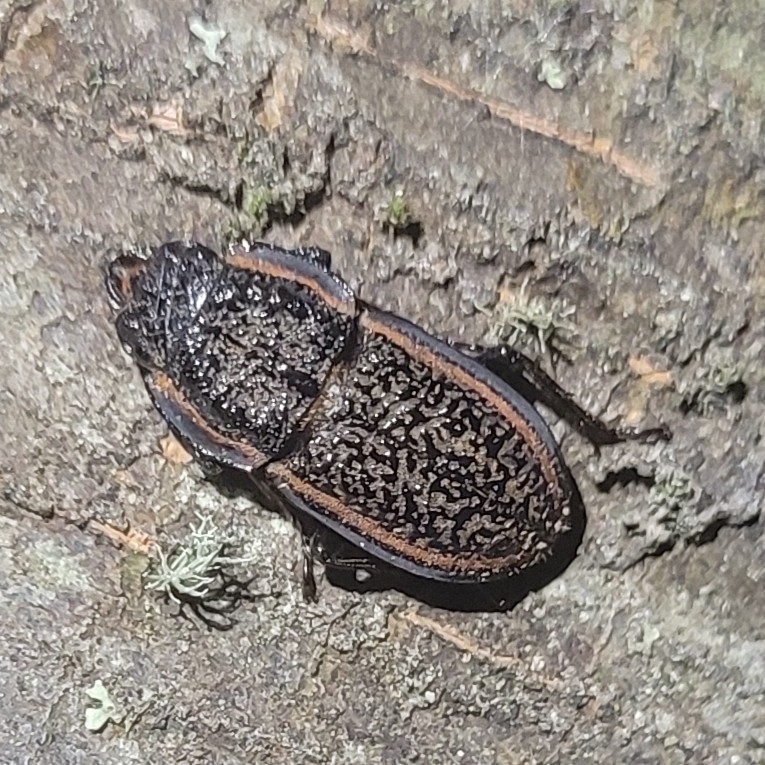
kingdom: Animalia
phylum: Arthropoda
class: Insecta
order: Coleoptera
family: Lucanidae
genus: Erichius
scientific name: Erichius caelatus
